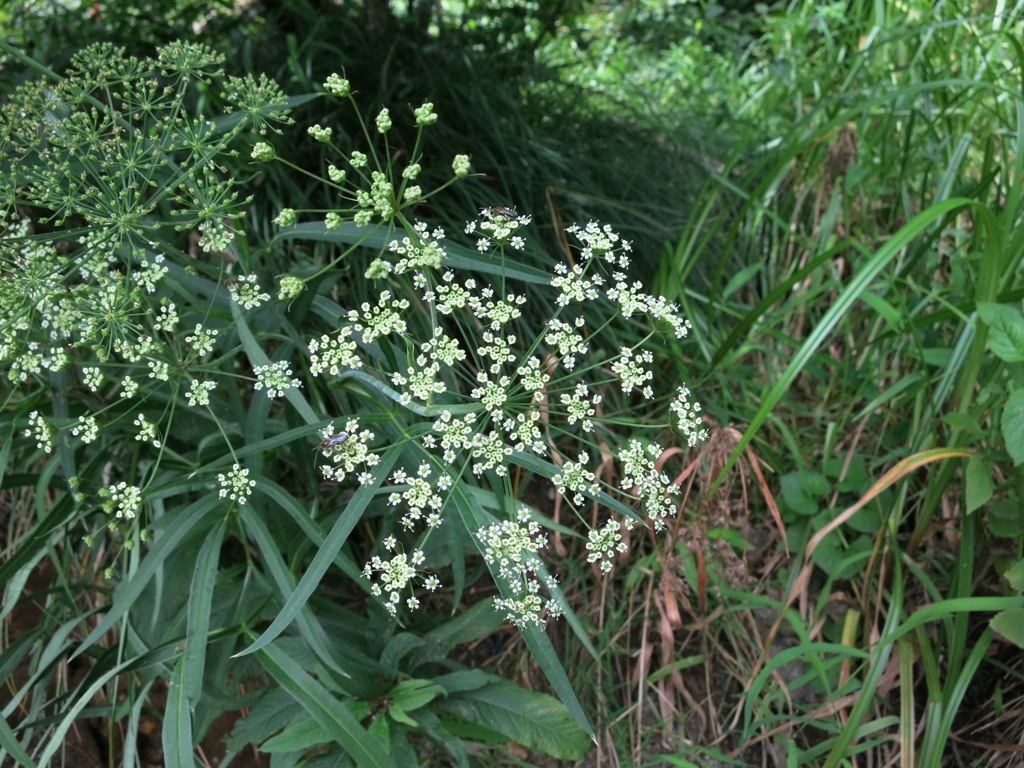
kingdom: Plantae
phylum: Tracheophyta
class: Magnoliopsida
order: Apiales
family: Apiaceae
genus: Oxypolis
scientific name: Oxypolis rigidior
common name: Cowbane
